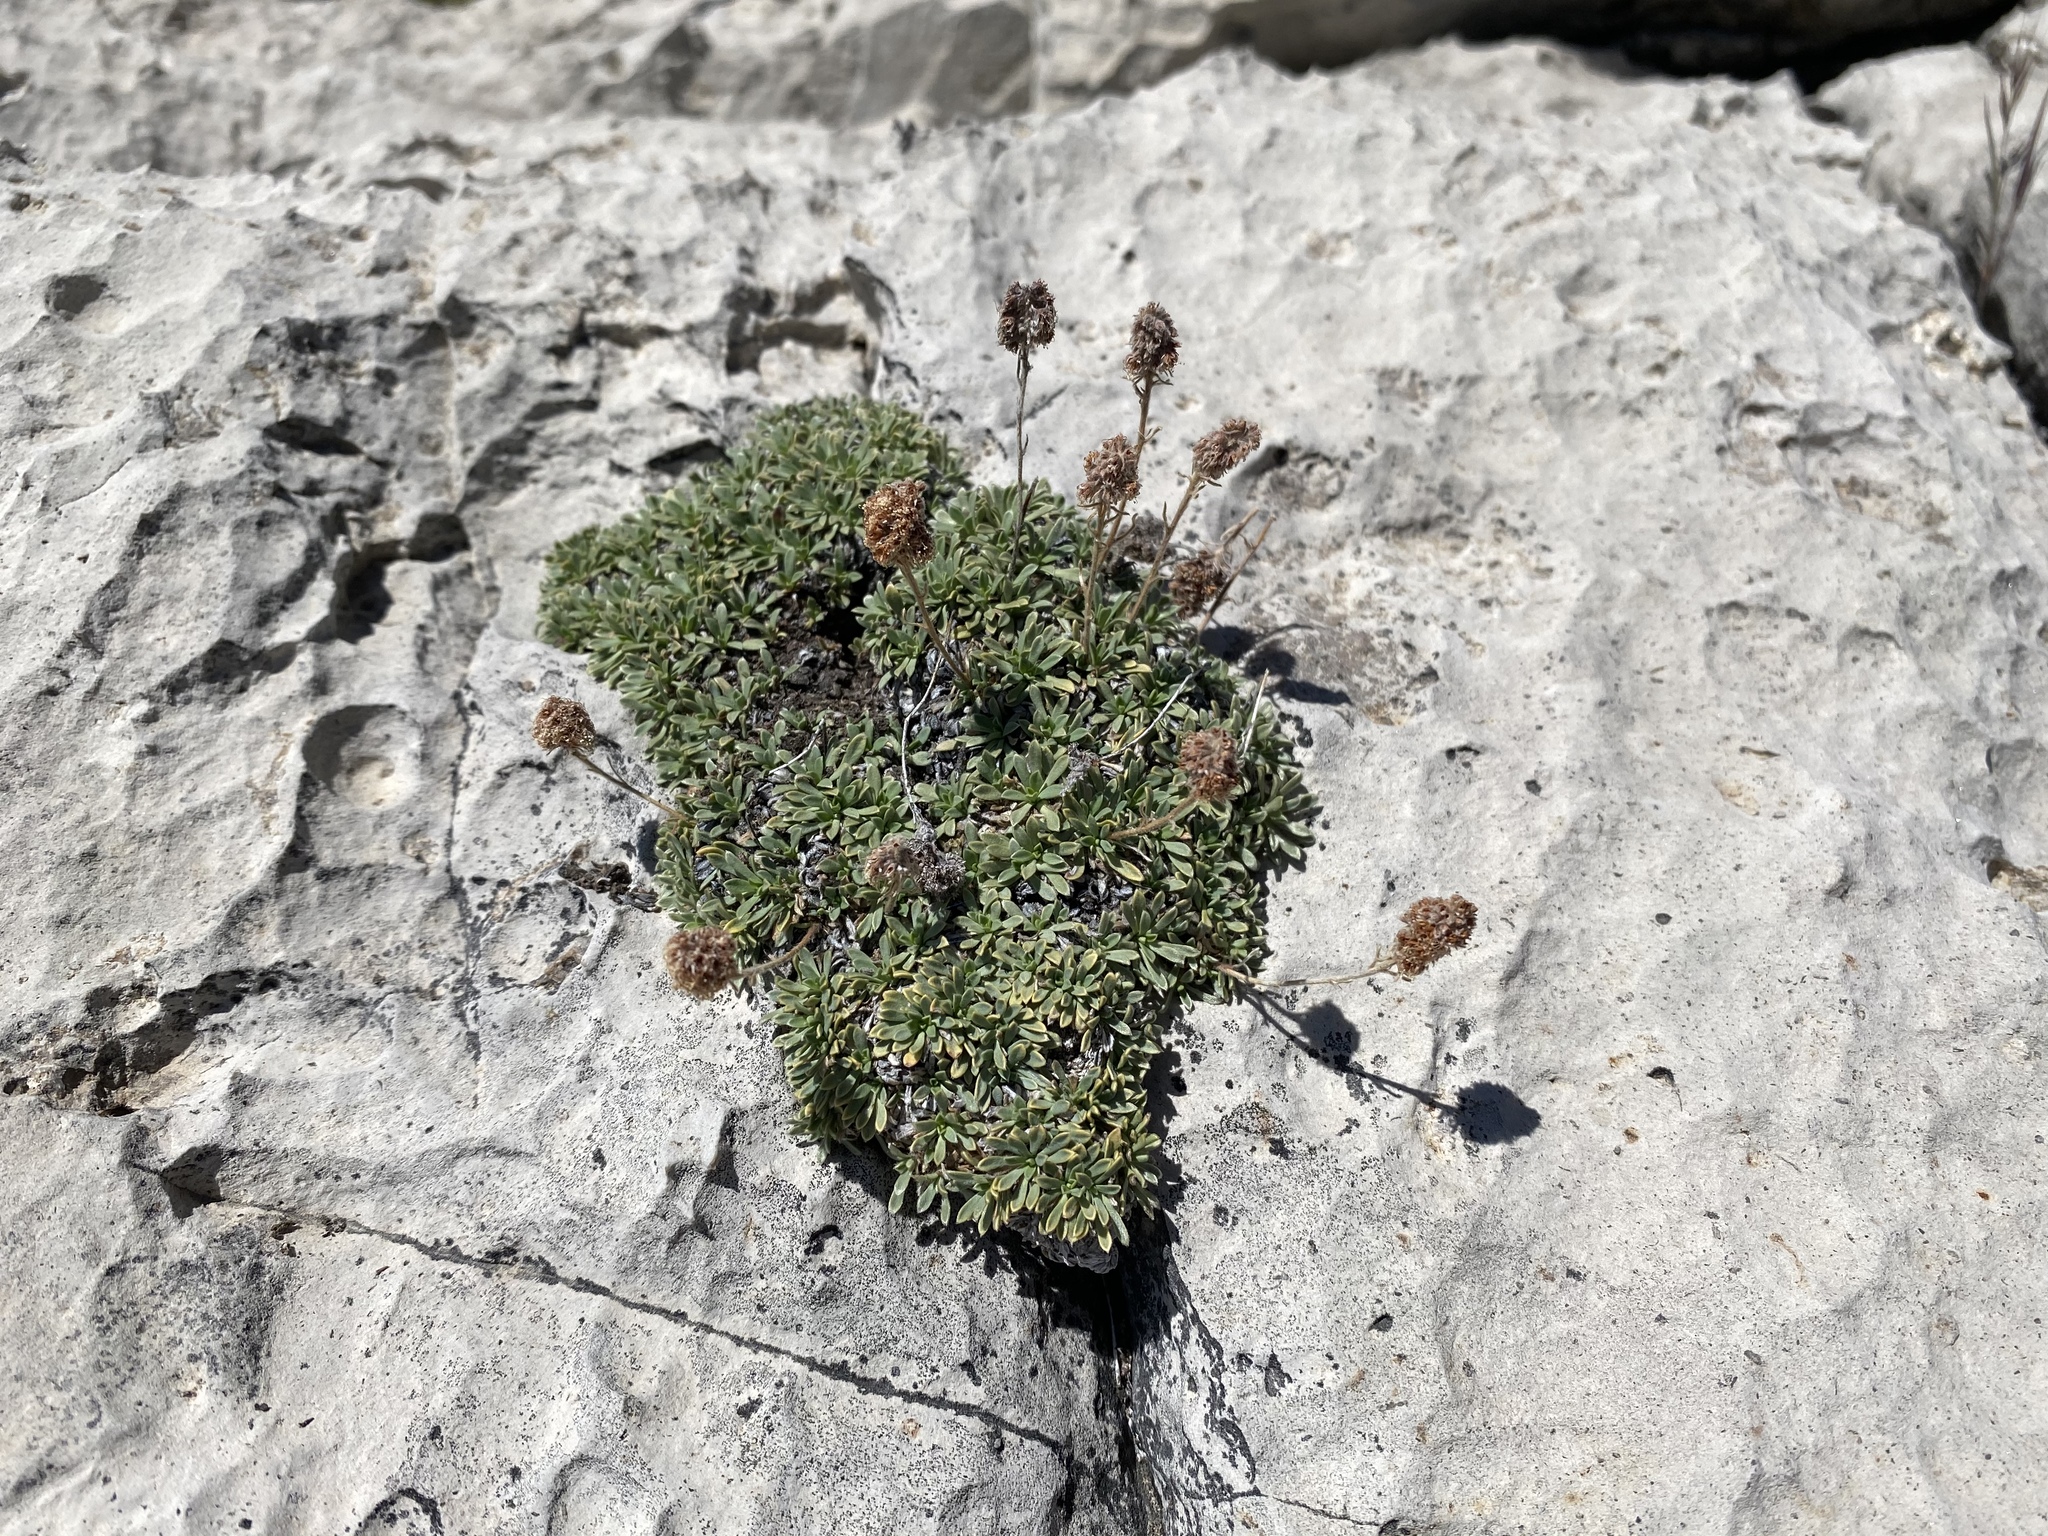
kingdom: Plantae
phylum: Tracheophyta
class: Magnoliopsida
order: Rosales
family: Rosaceae
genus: Petrophytum
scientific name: Petrophytum caespitosum
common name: Mat rockspirea
